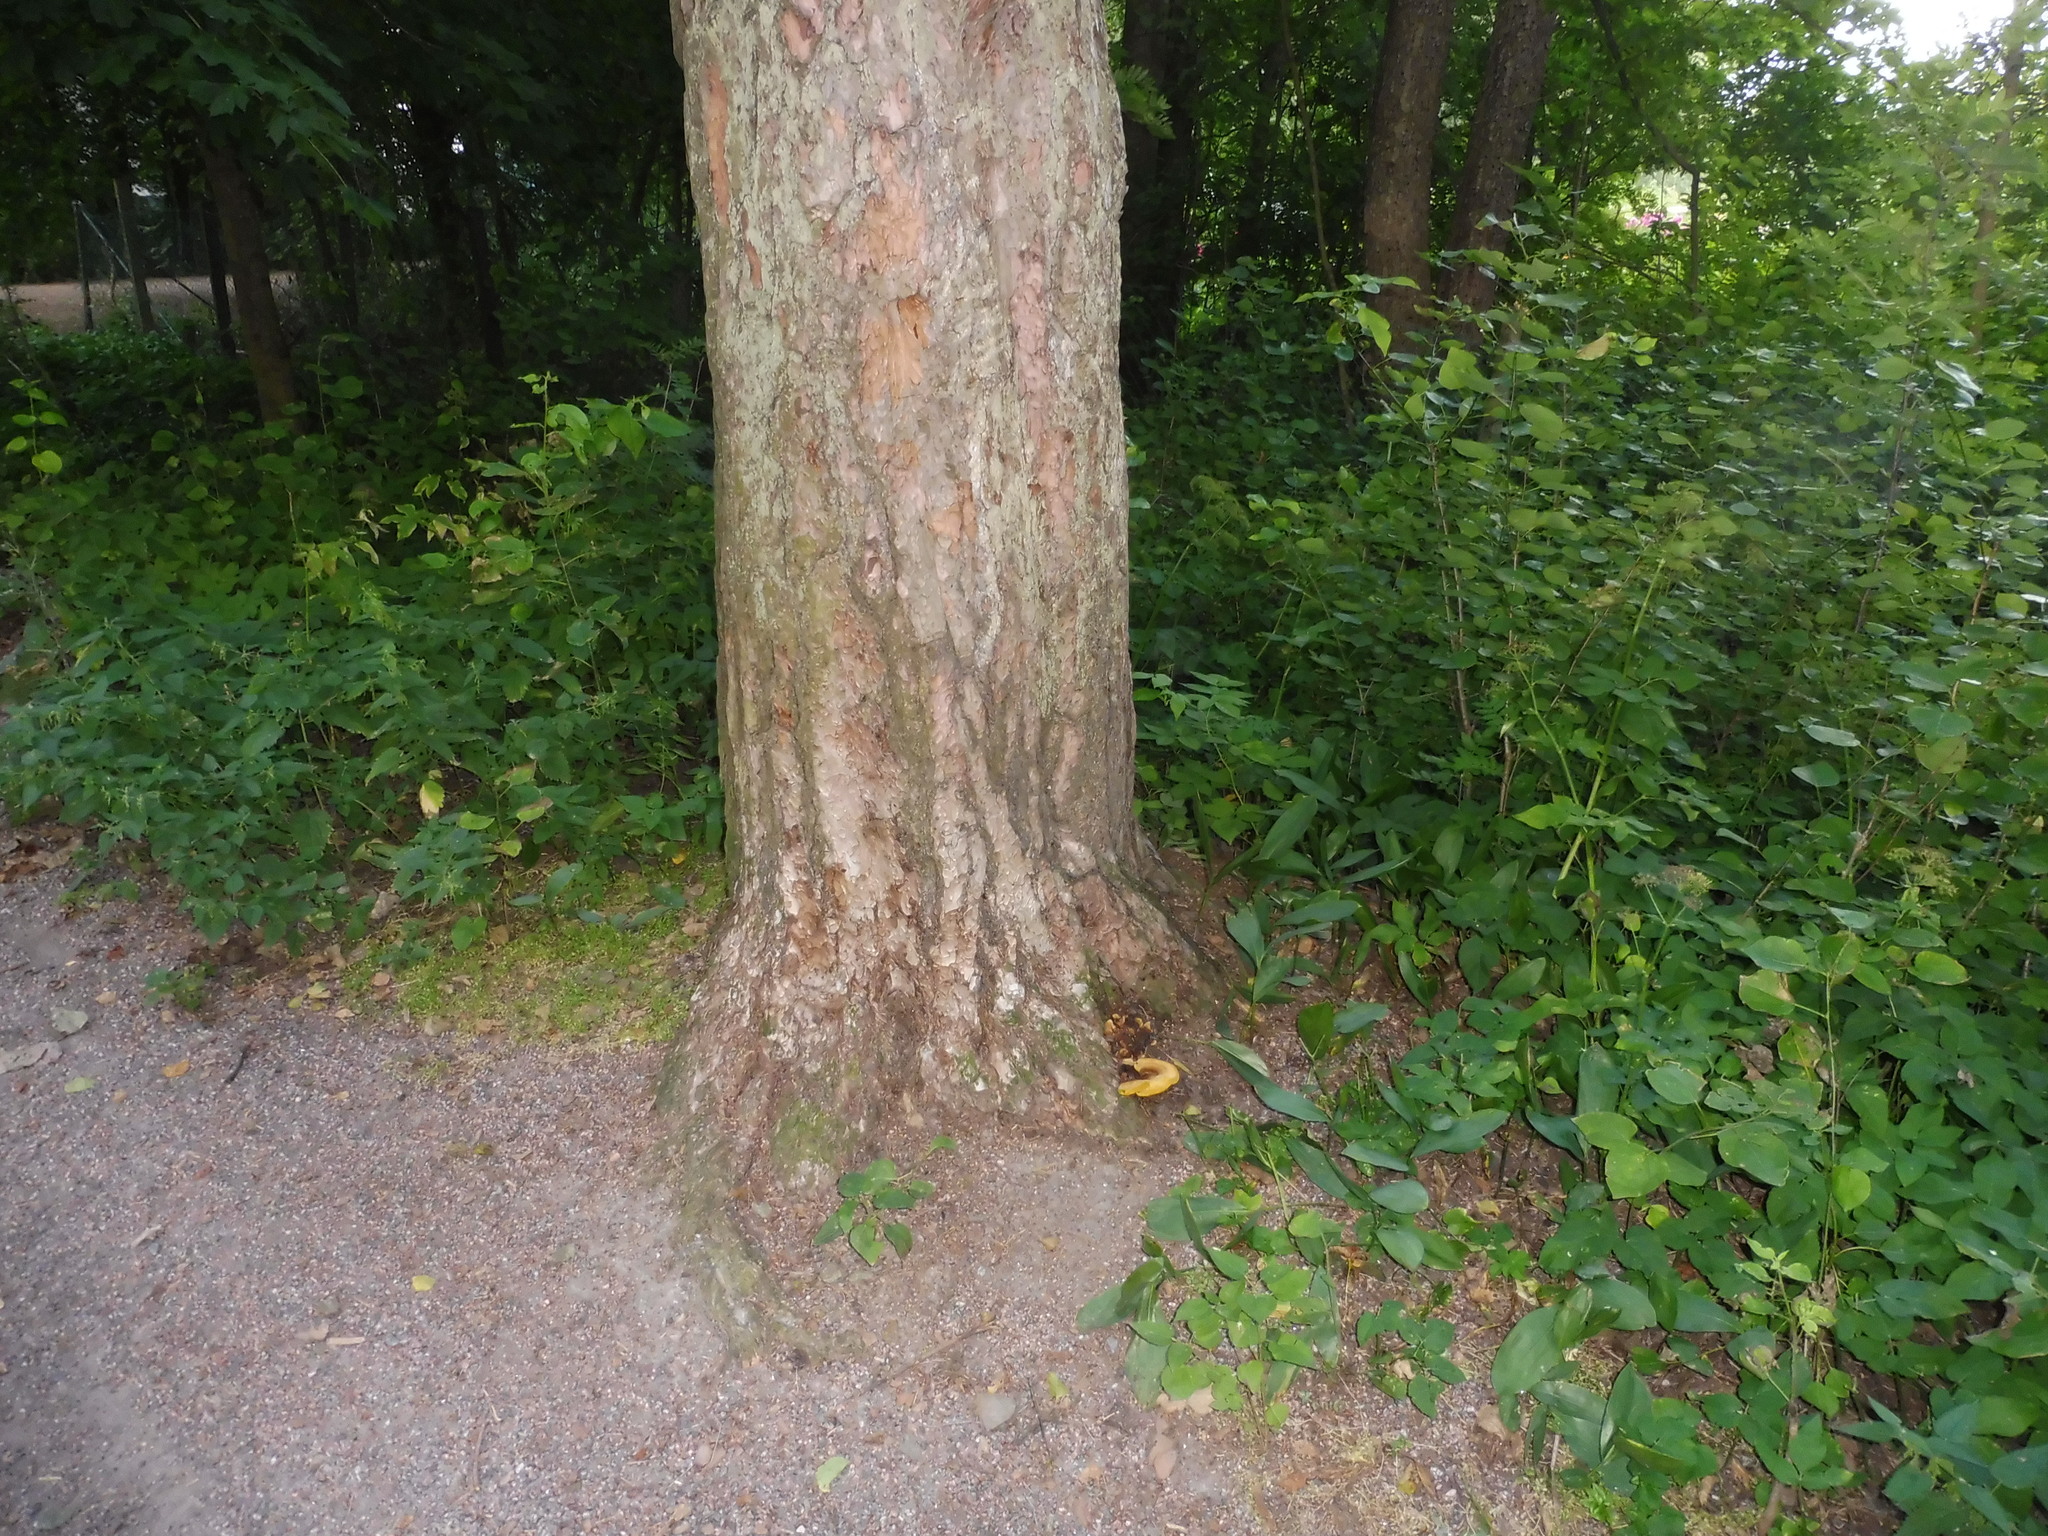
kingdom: Fungi
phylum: Basidiomycota
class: Agaricomycetes
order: Polyporales
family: Laetiporaceae
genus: Phaeolus
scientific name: Phaeolus schweinitzii
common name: Dyer's mazegill
